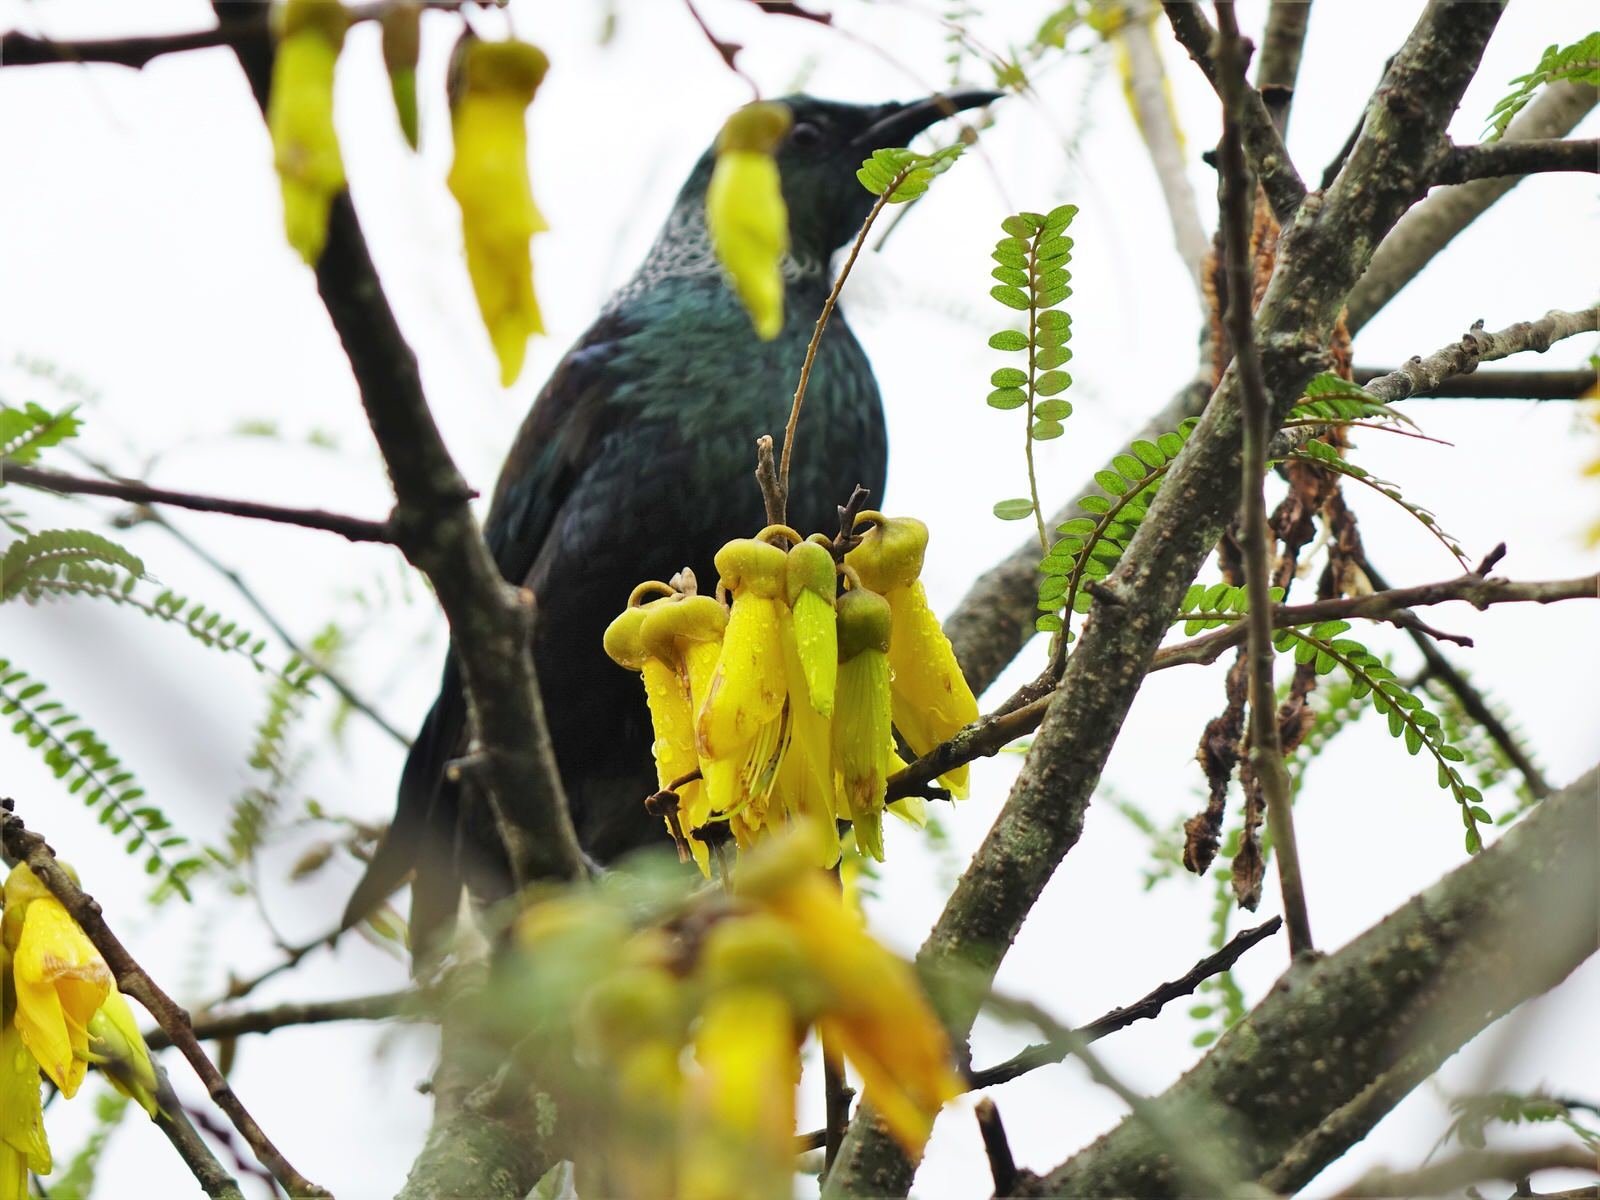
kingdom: Animalia
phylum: Chordata
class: Aves
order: Passeriformes
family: Meliphagidae
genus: Prosthemadera
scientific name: Prosthemadera novaeseelandiae
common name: Tui
